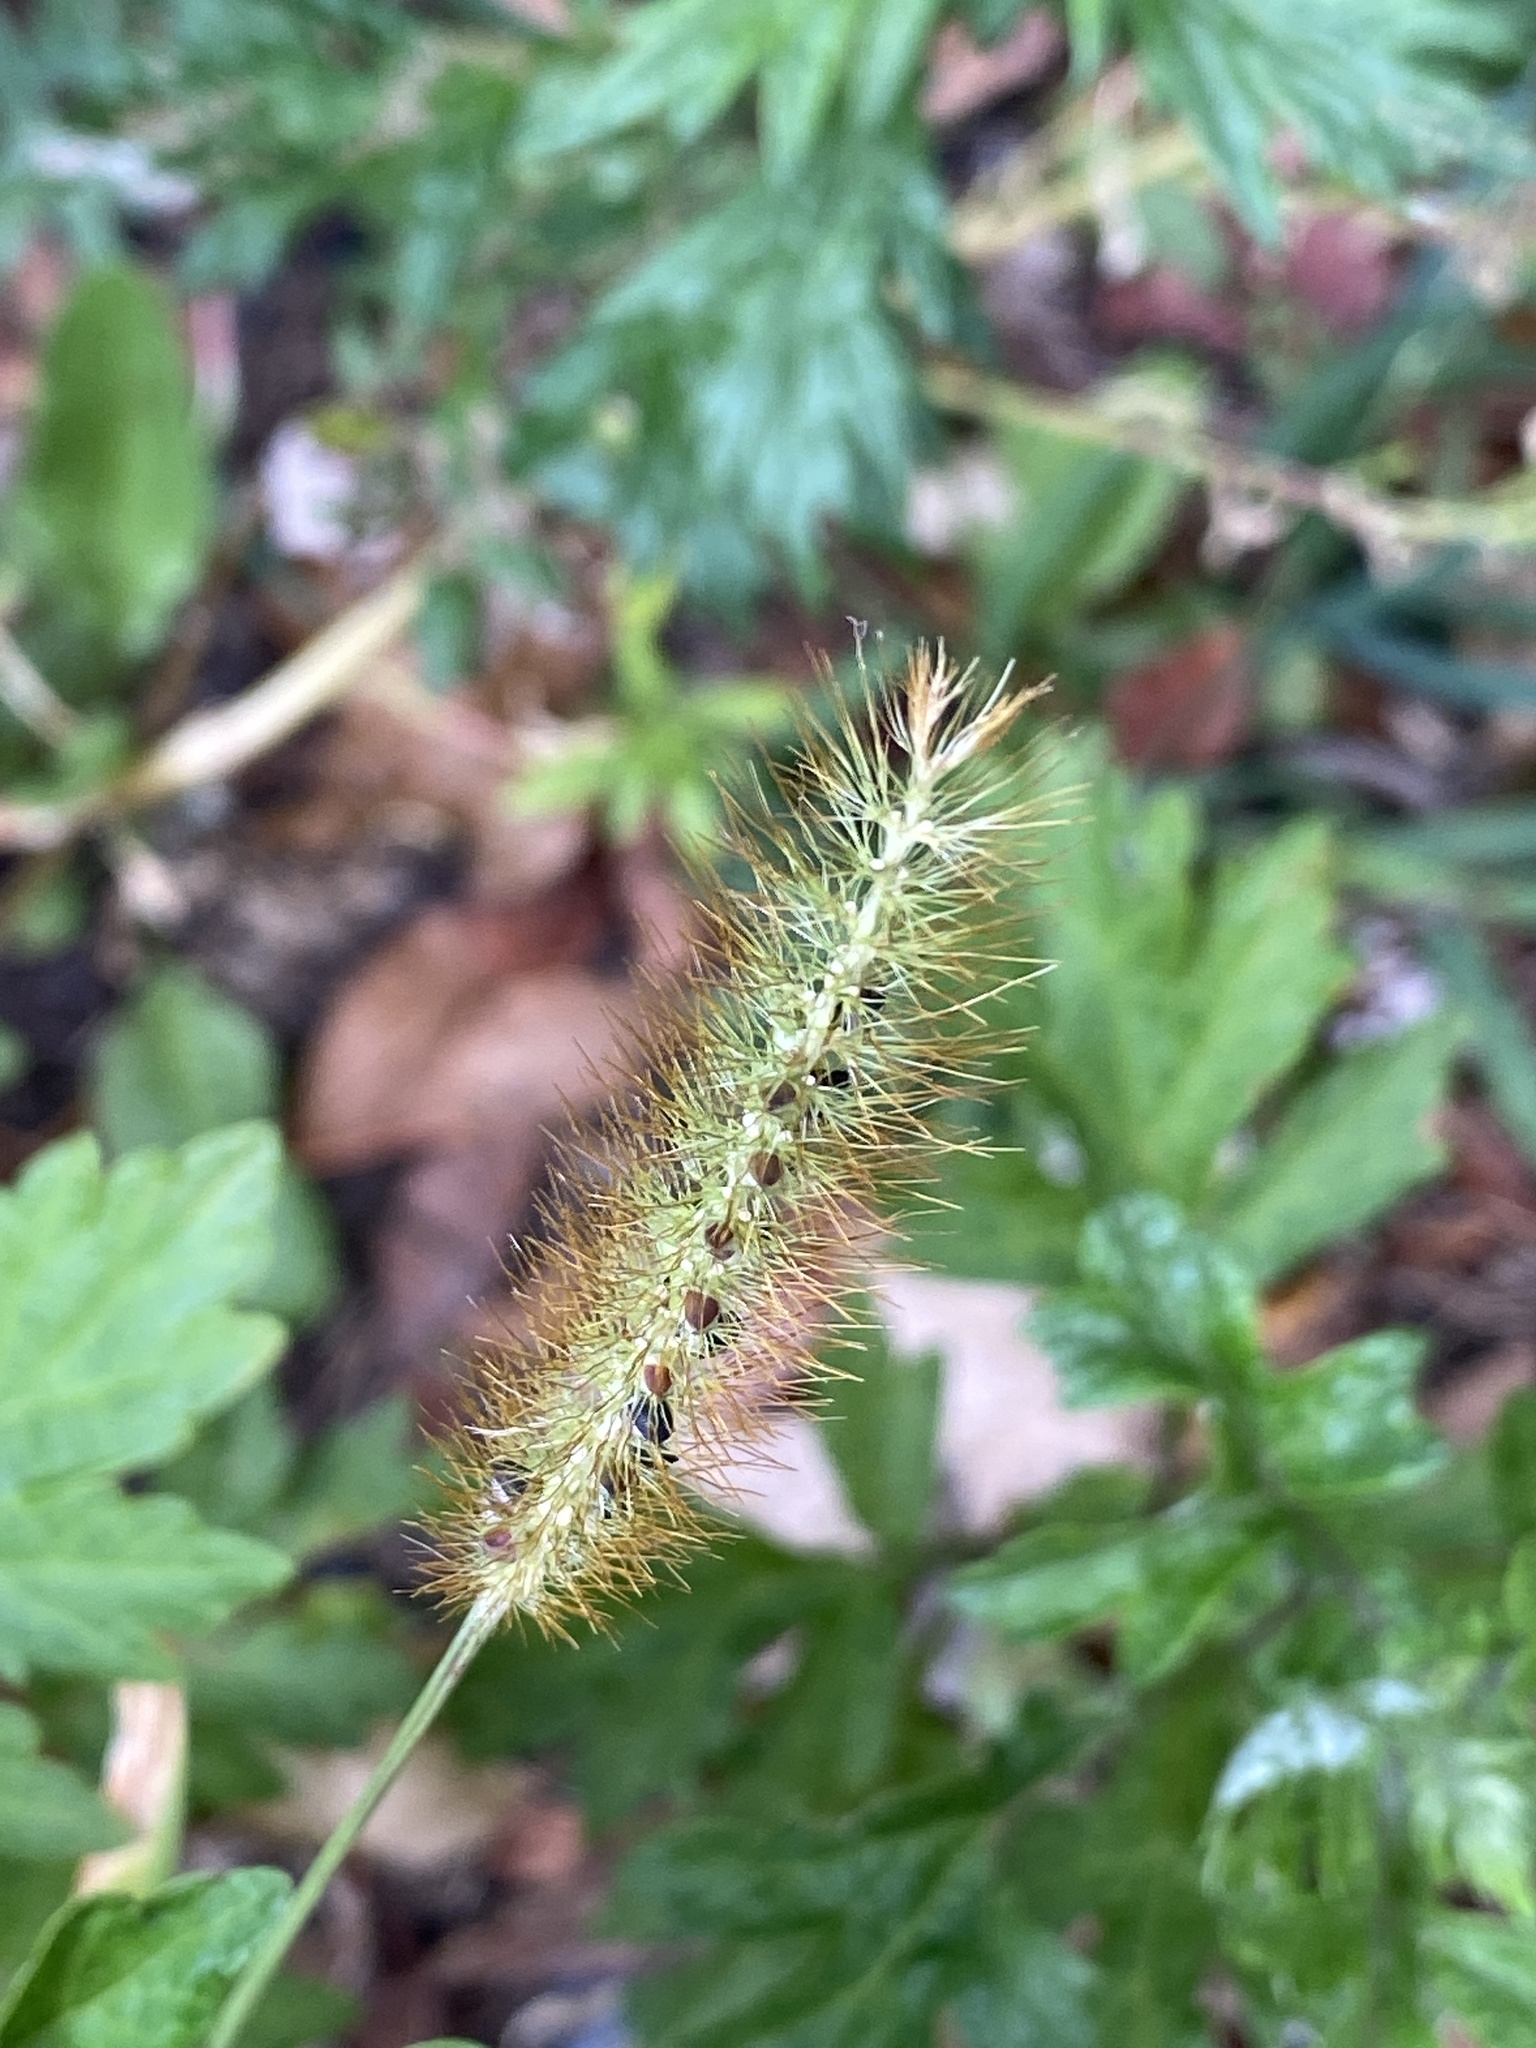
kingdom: Plantae
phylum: Tracheophyta
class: Liliopsida
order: Poales
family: Poaceae
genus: Setaria
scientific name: Setaria pumila
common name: Yellow bristle-grass
